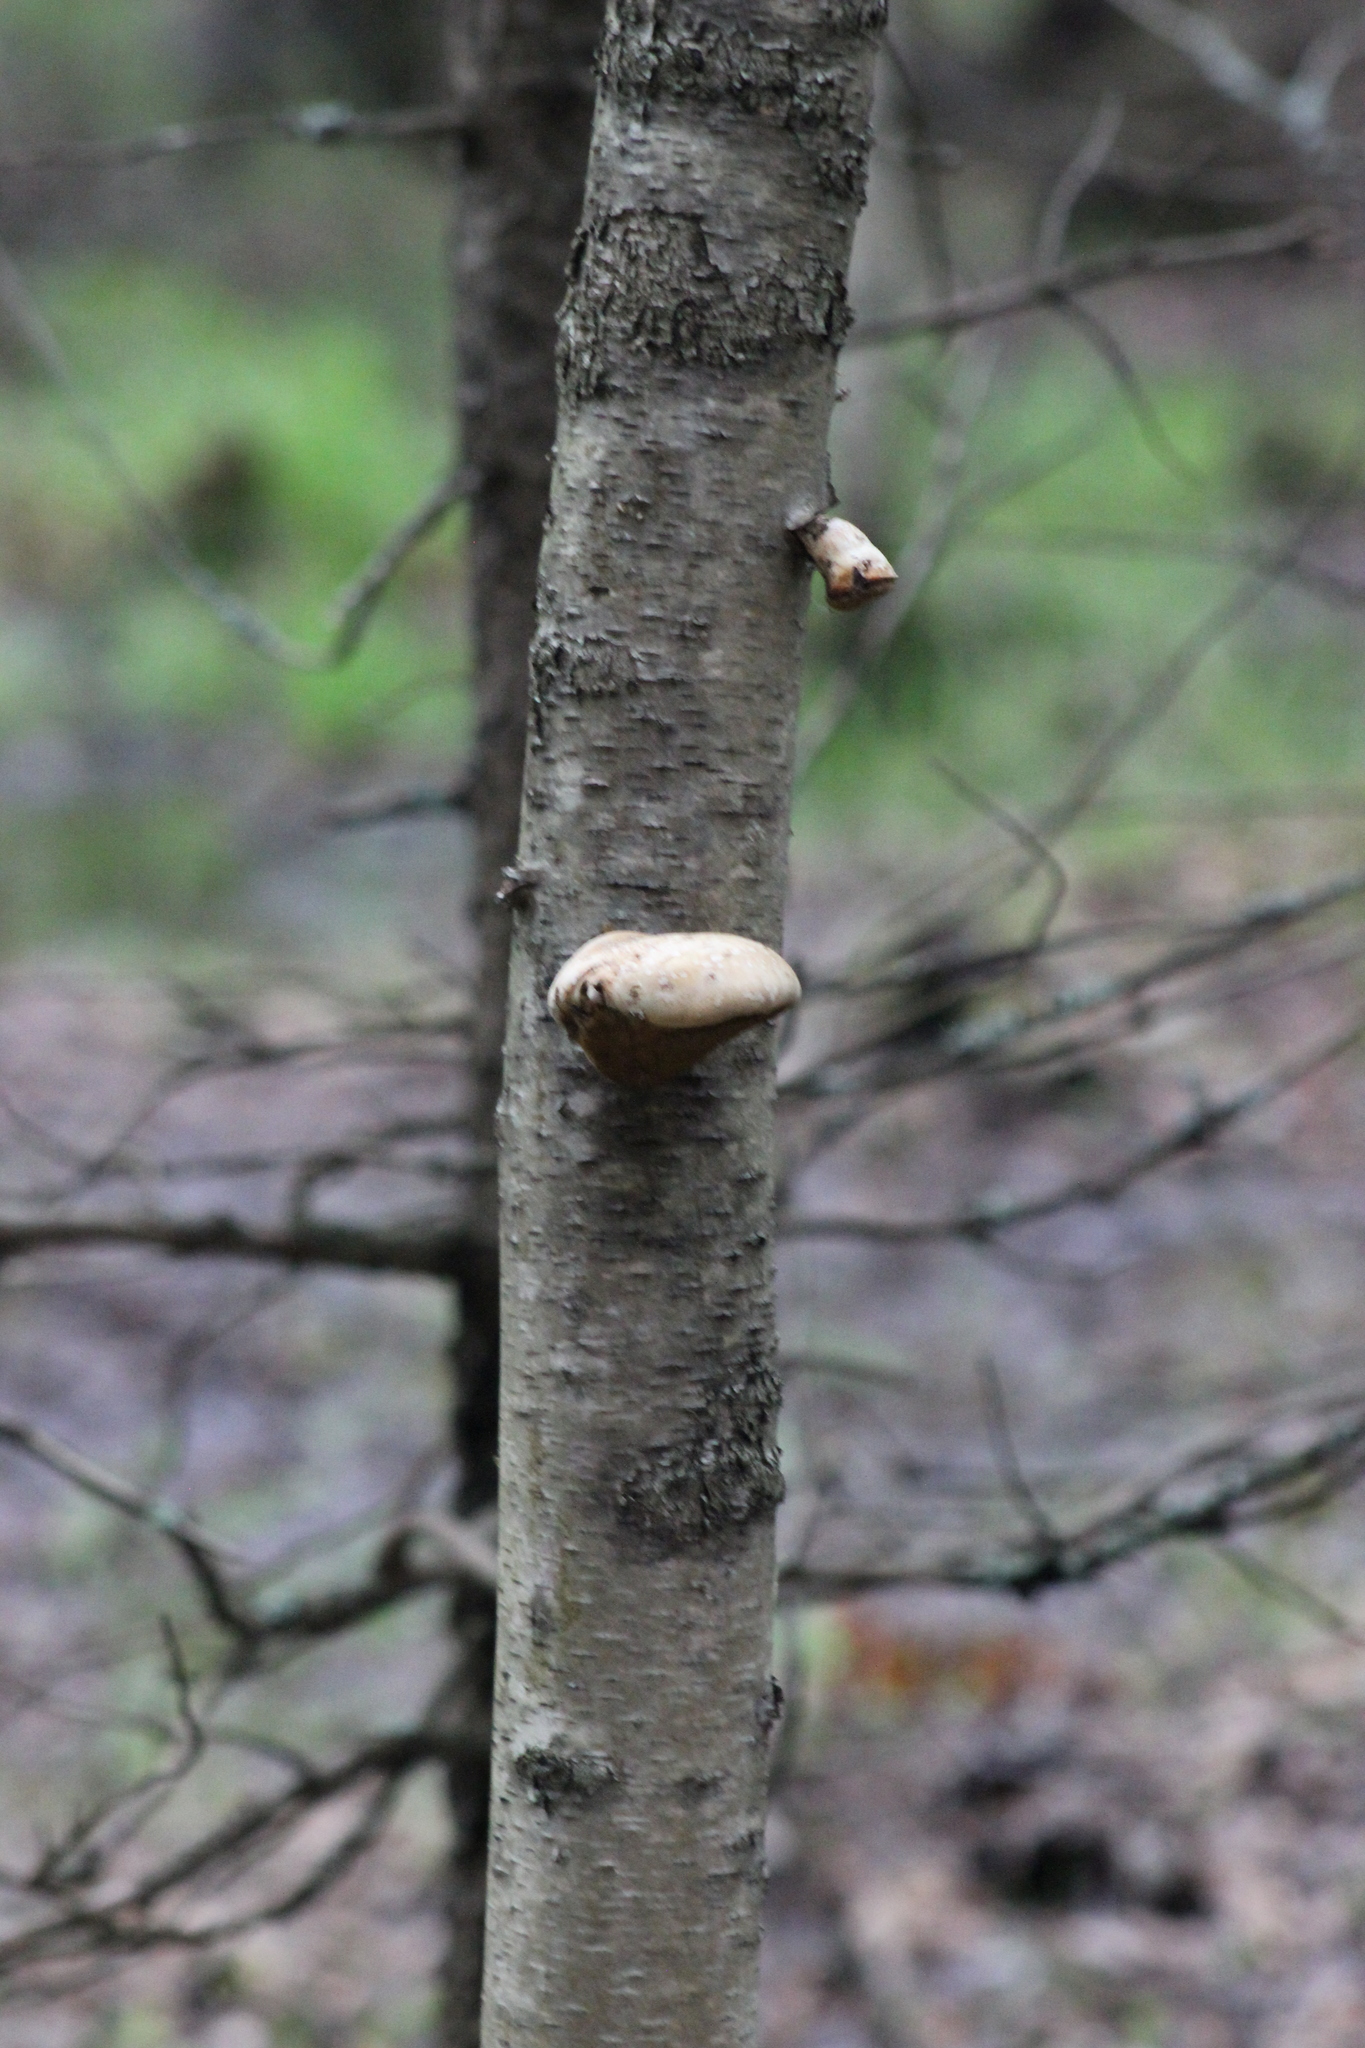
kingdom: Fungi
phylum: Basidiomycota
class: Agaricomycetes
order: Polyporales
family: Fomitopsidaceae
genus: Fomitopsis
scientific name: Fomitopsis betulina
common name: Birch polypore
